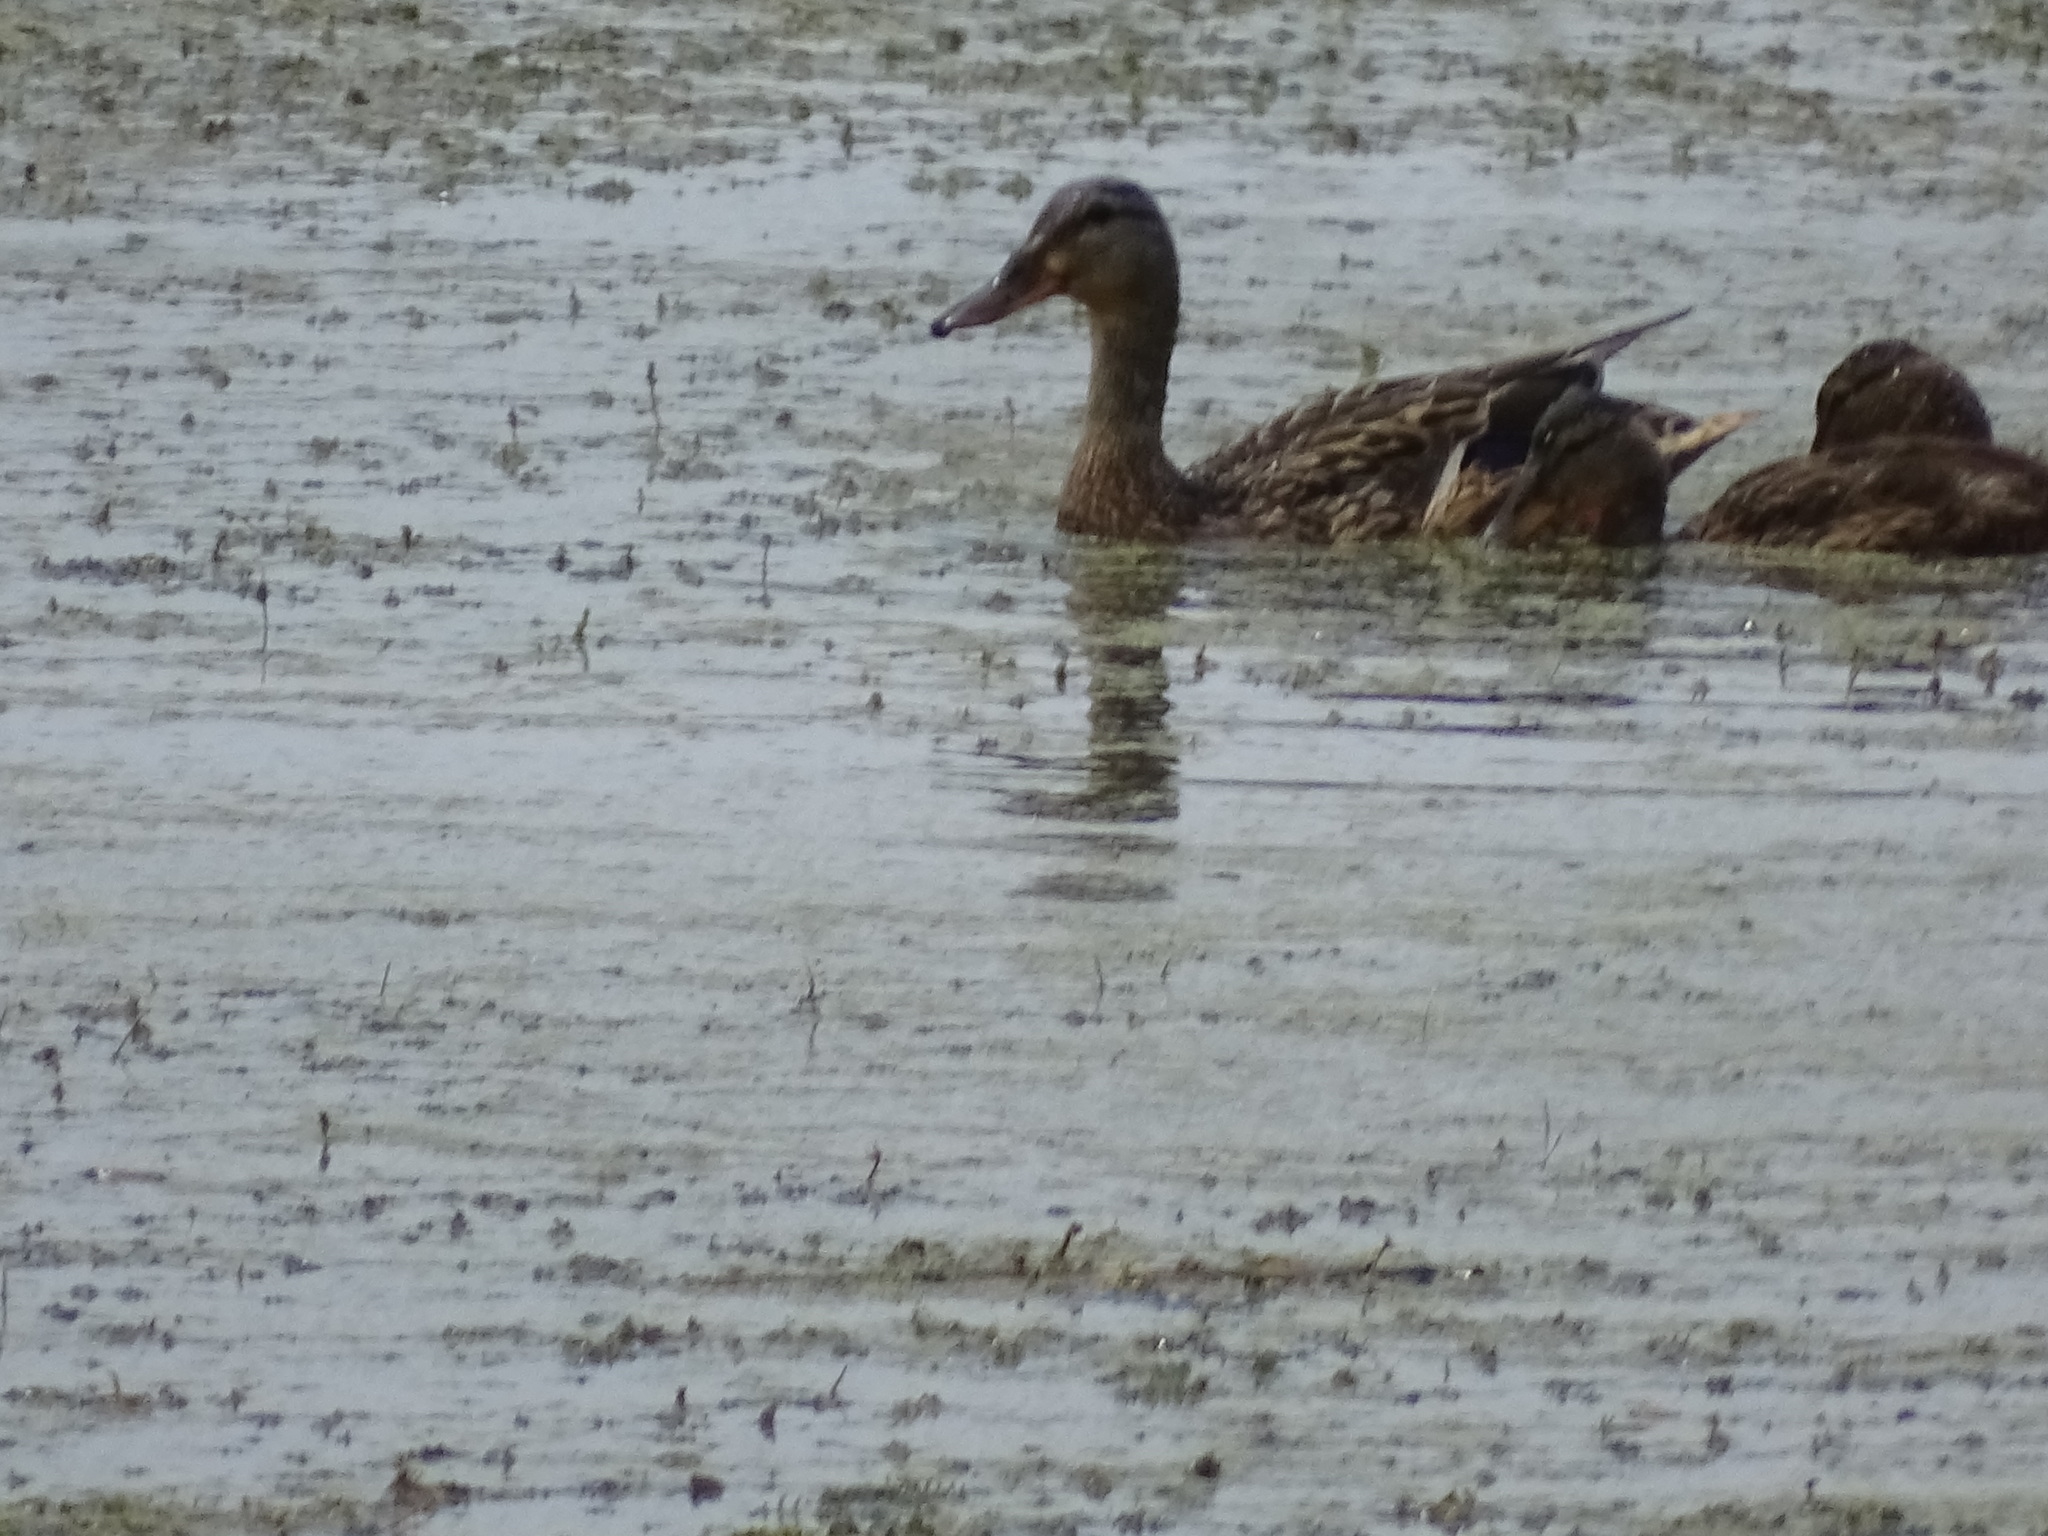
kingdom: Animalia
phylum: Chordata
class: Aves
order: Anseriformes
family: Anatidae
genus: Anas
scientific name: Anas platyrhynchos
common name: Mallard
